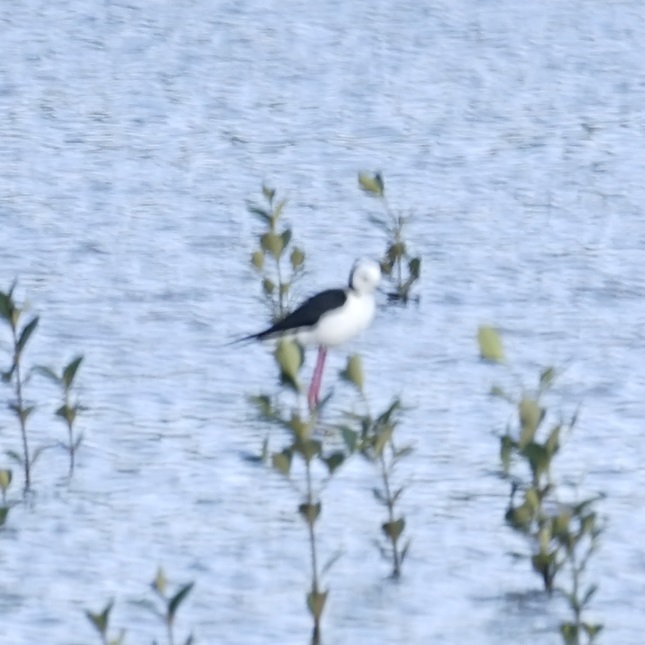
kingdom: Animalia
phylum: Chordata
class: Aves
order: Charadriiformes
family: Recurvirostridae
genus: Himantopus
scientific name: Himantopus leucocephalus
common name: White-headed stilt
